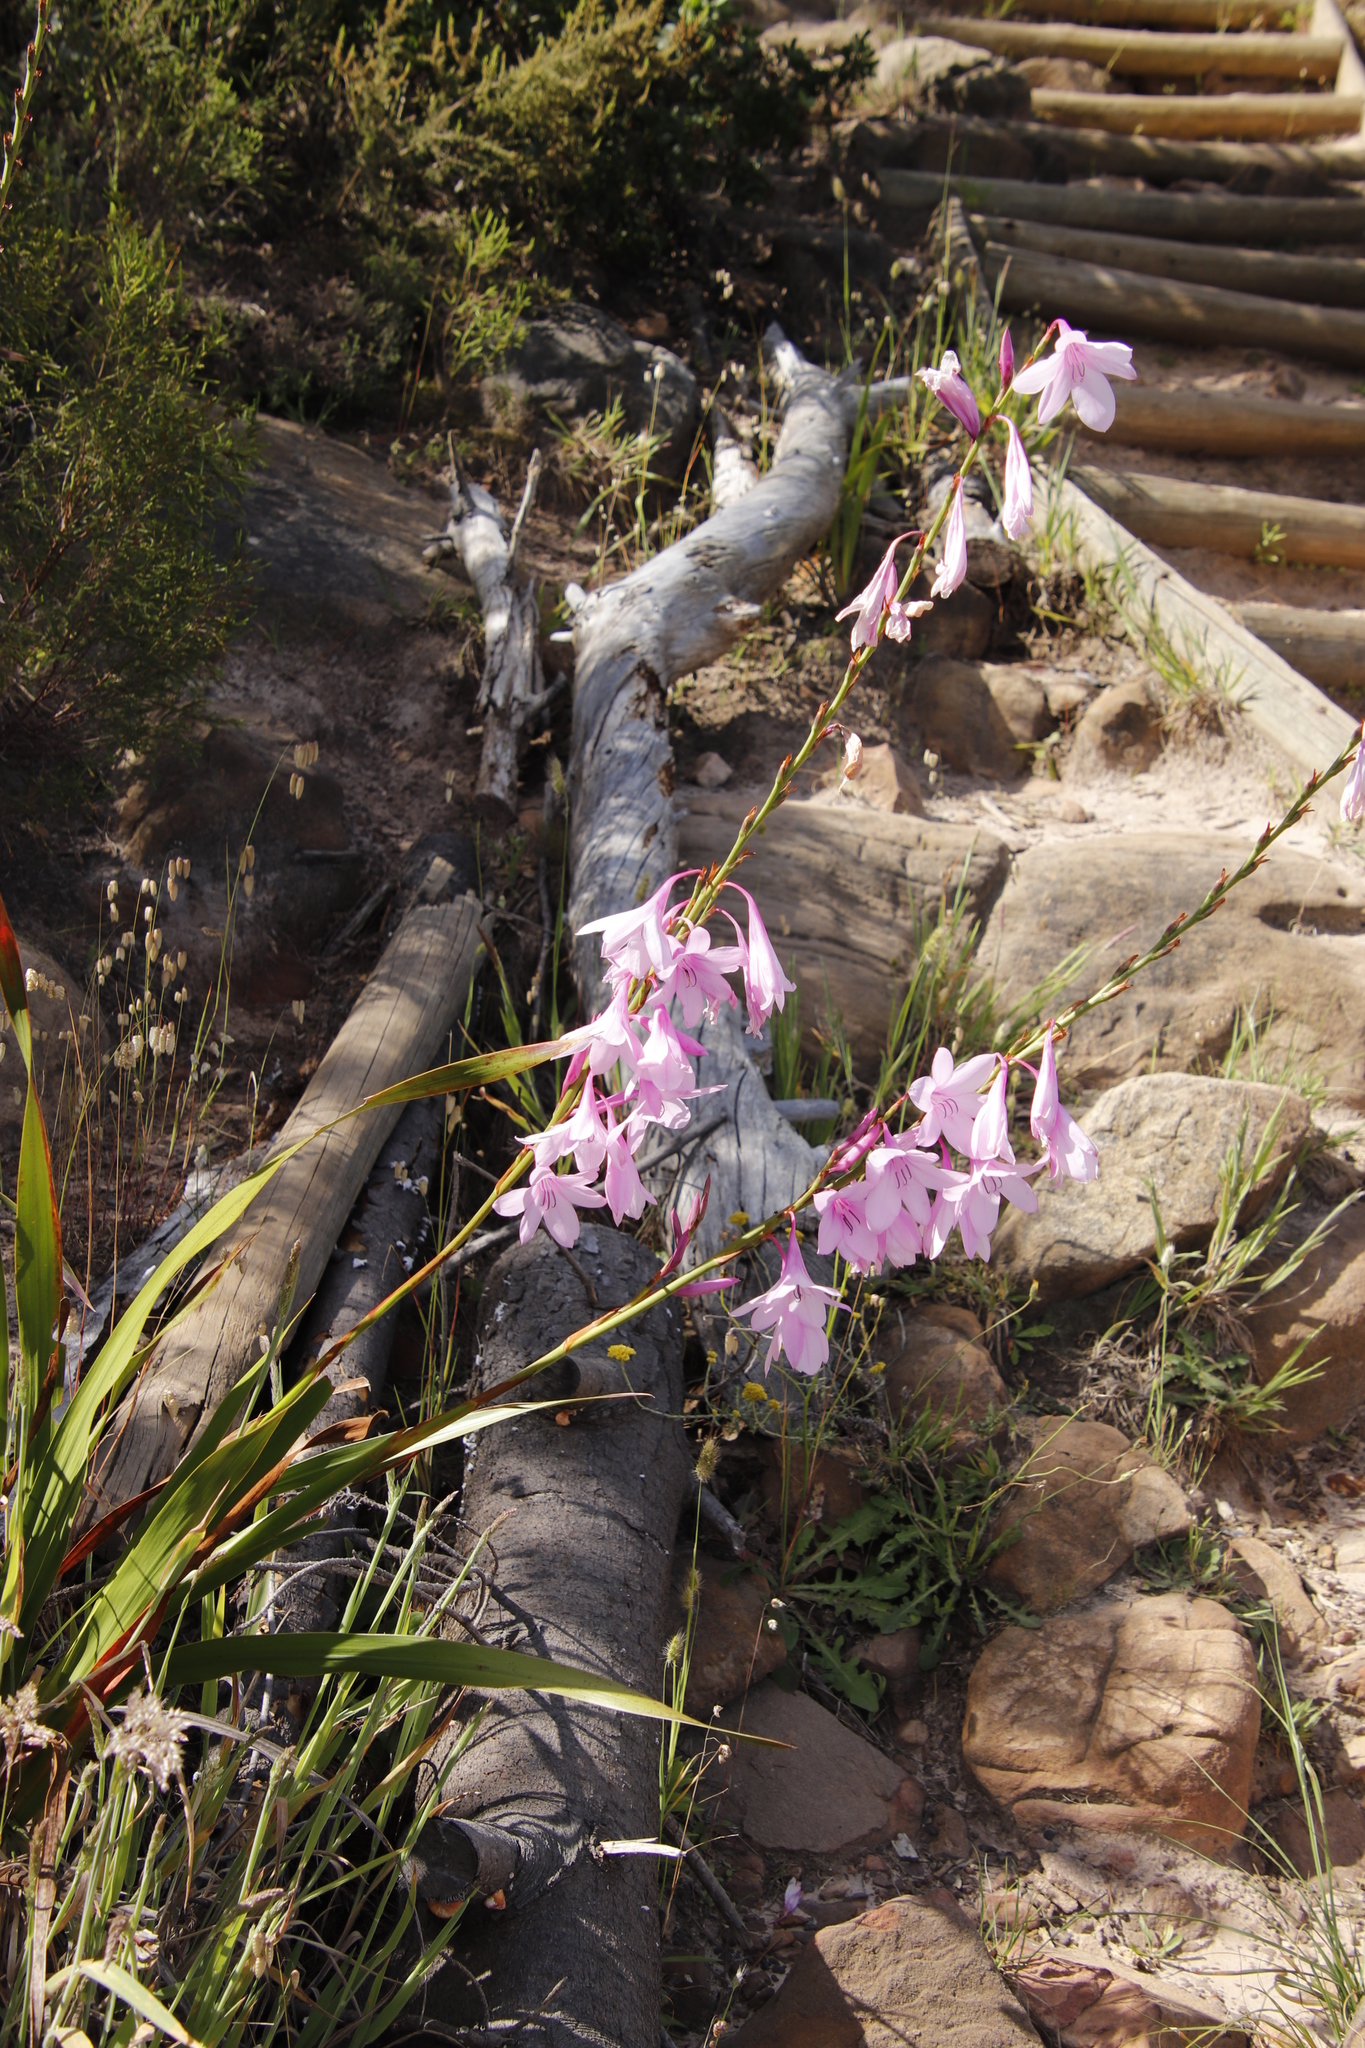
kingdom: Plantae
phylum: Tracheophyta
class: Liliopsida
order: Asparagales
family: Iridaceae
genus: Watsonia
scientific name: Watsonia borbonica
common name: Bugle-lily
